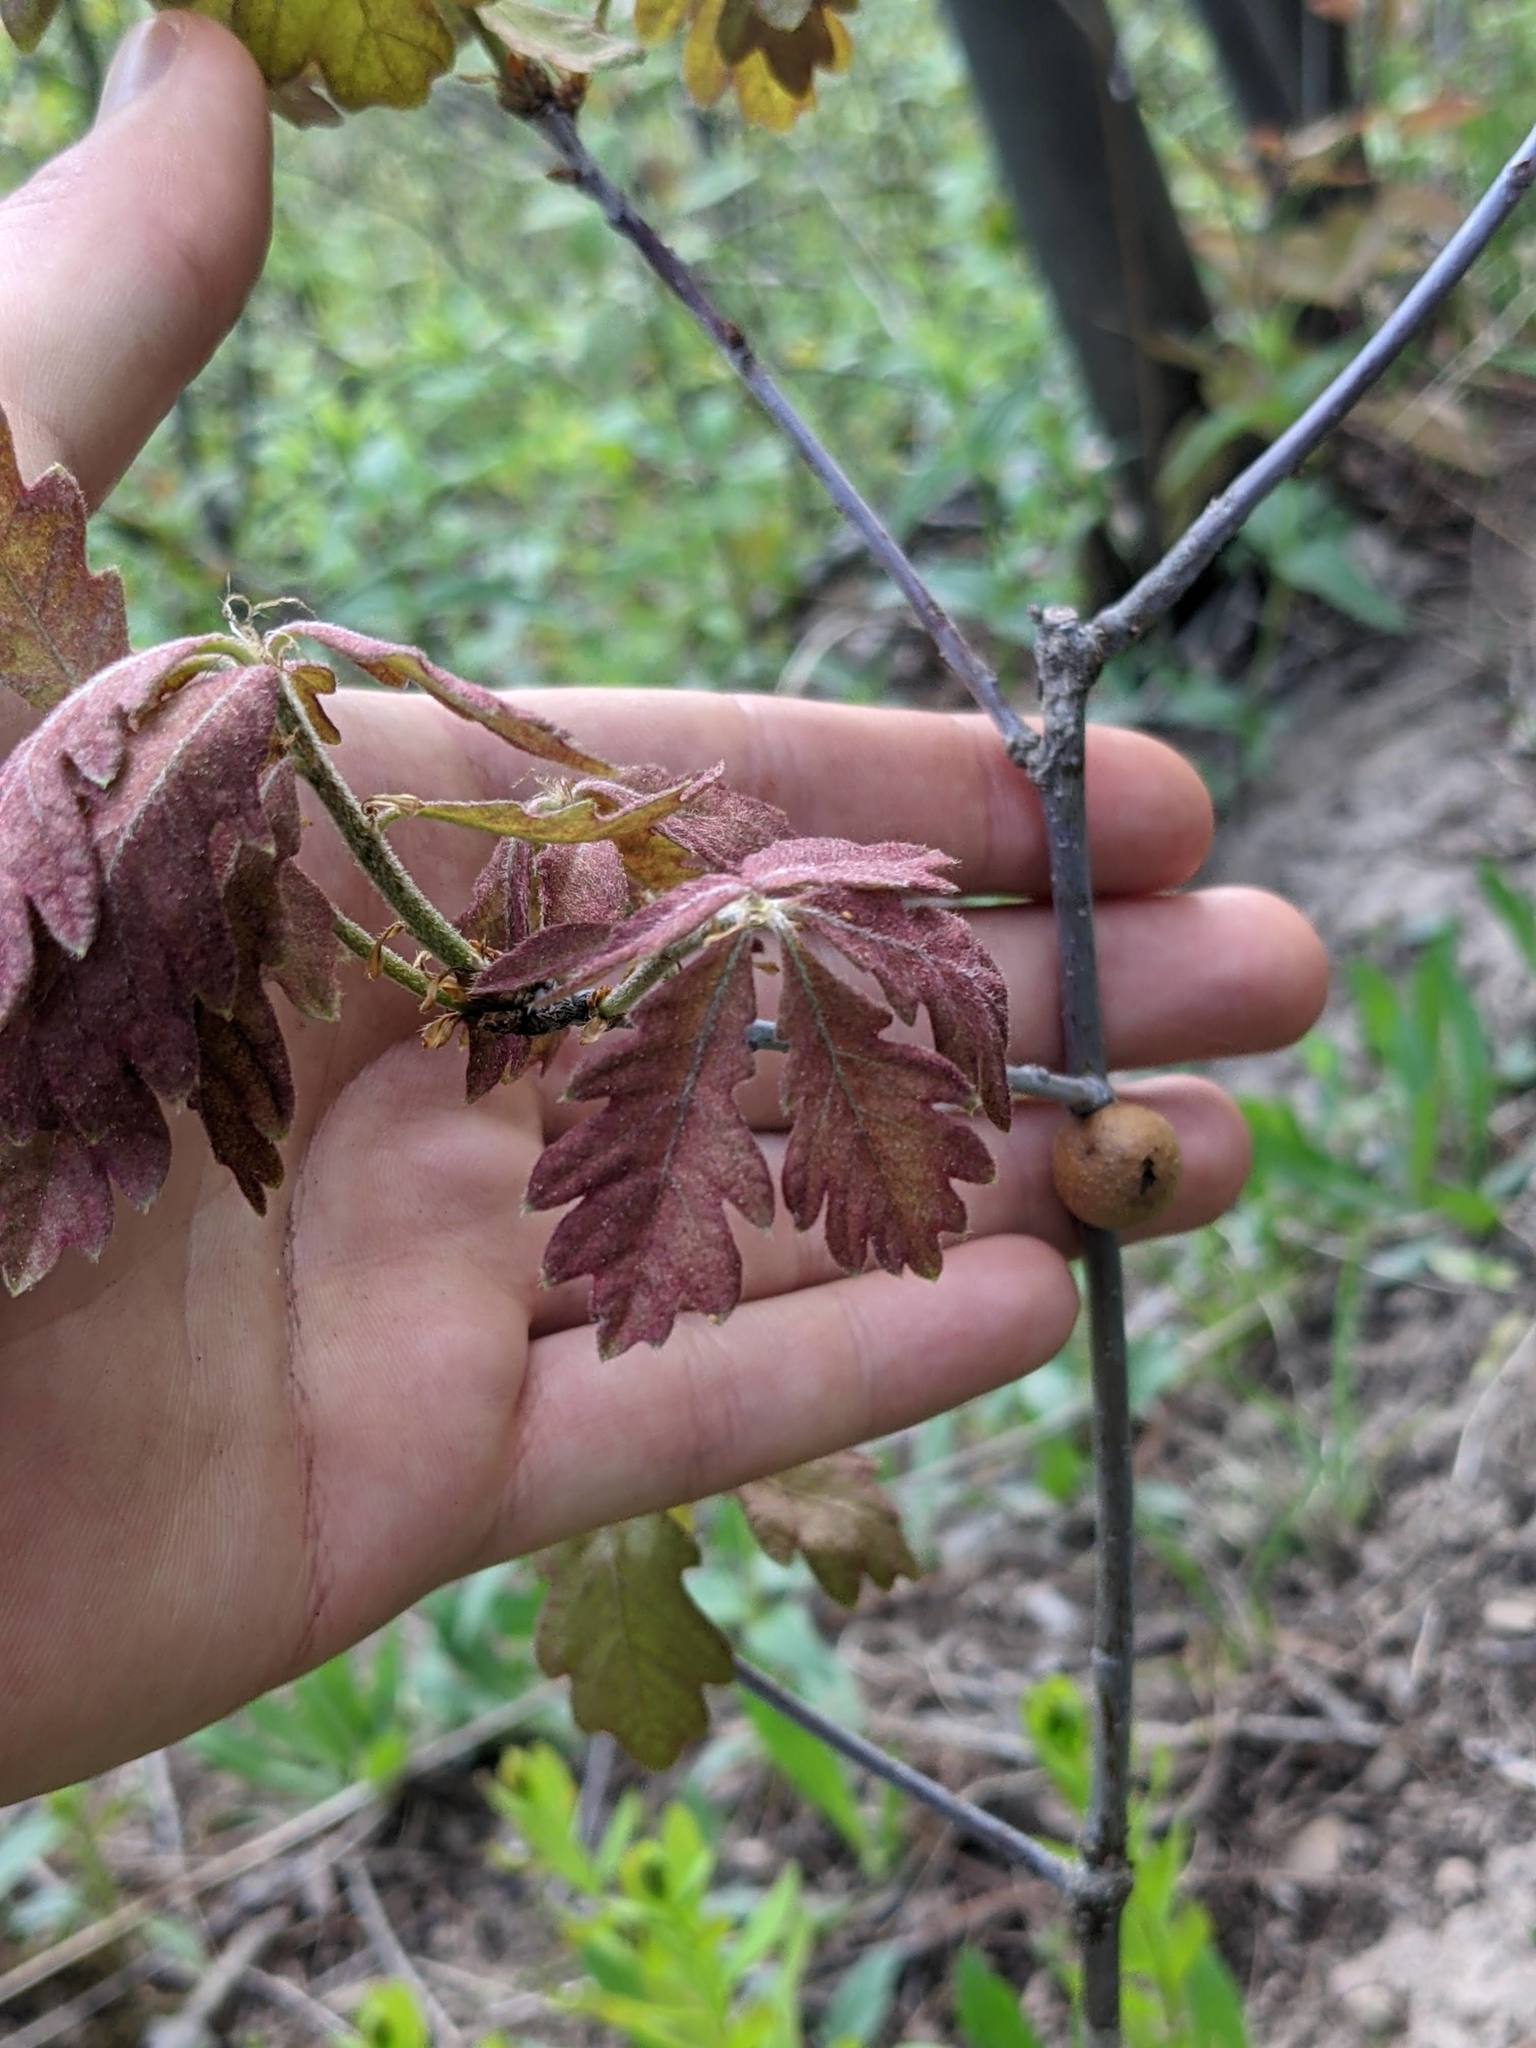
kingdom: Animalia
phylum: Arthropoda
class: Insecta
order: Hymenoptera
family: Cynipidae
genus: Disholcaspis
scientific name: Disholcaspis quercusglobulus
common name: Round bullet gall wasp
